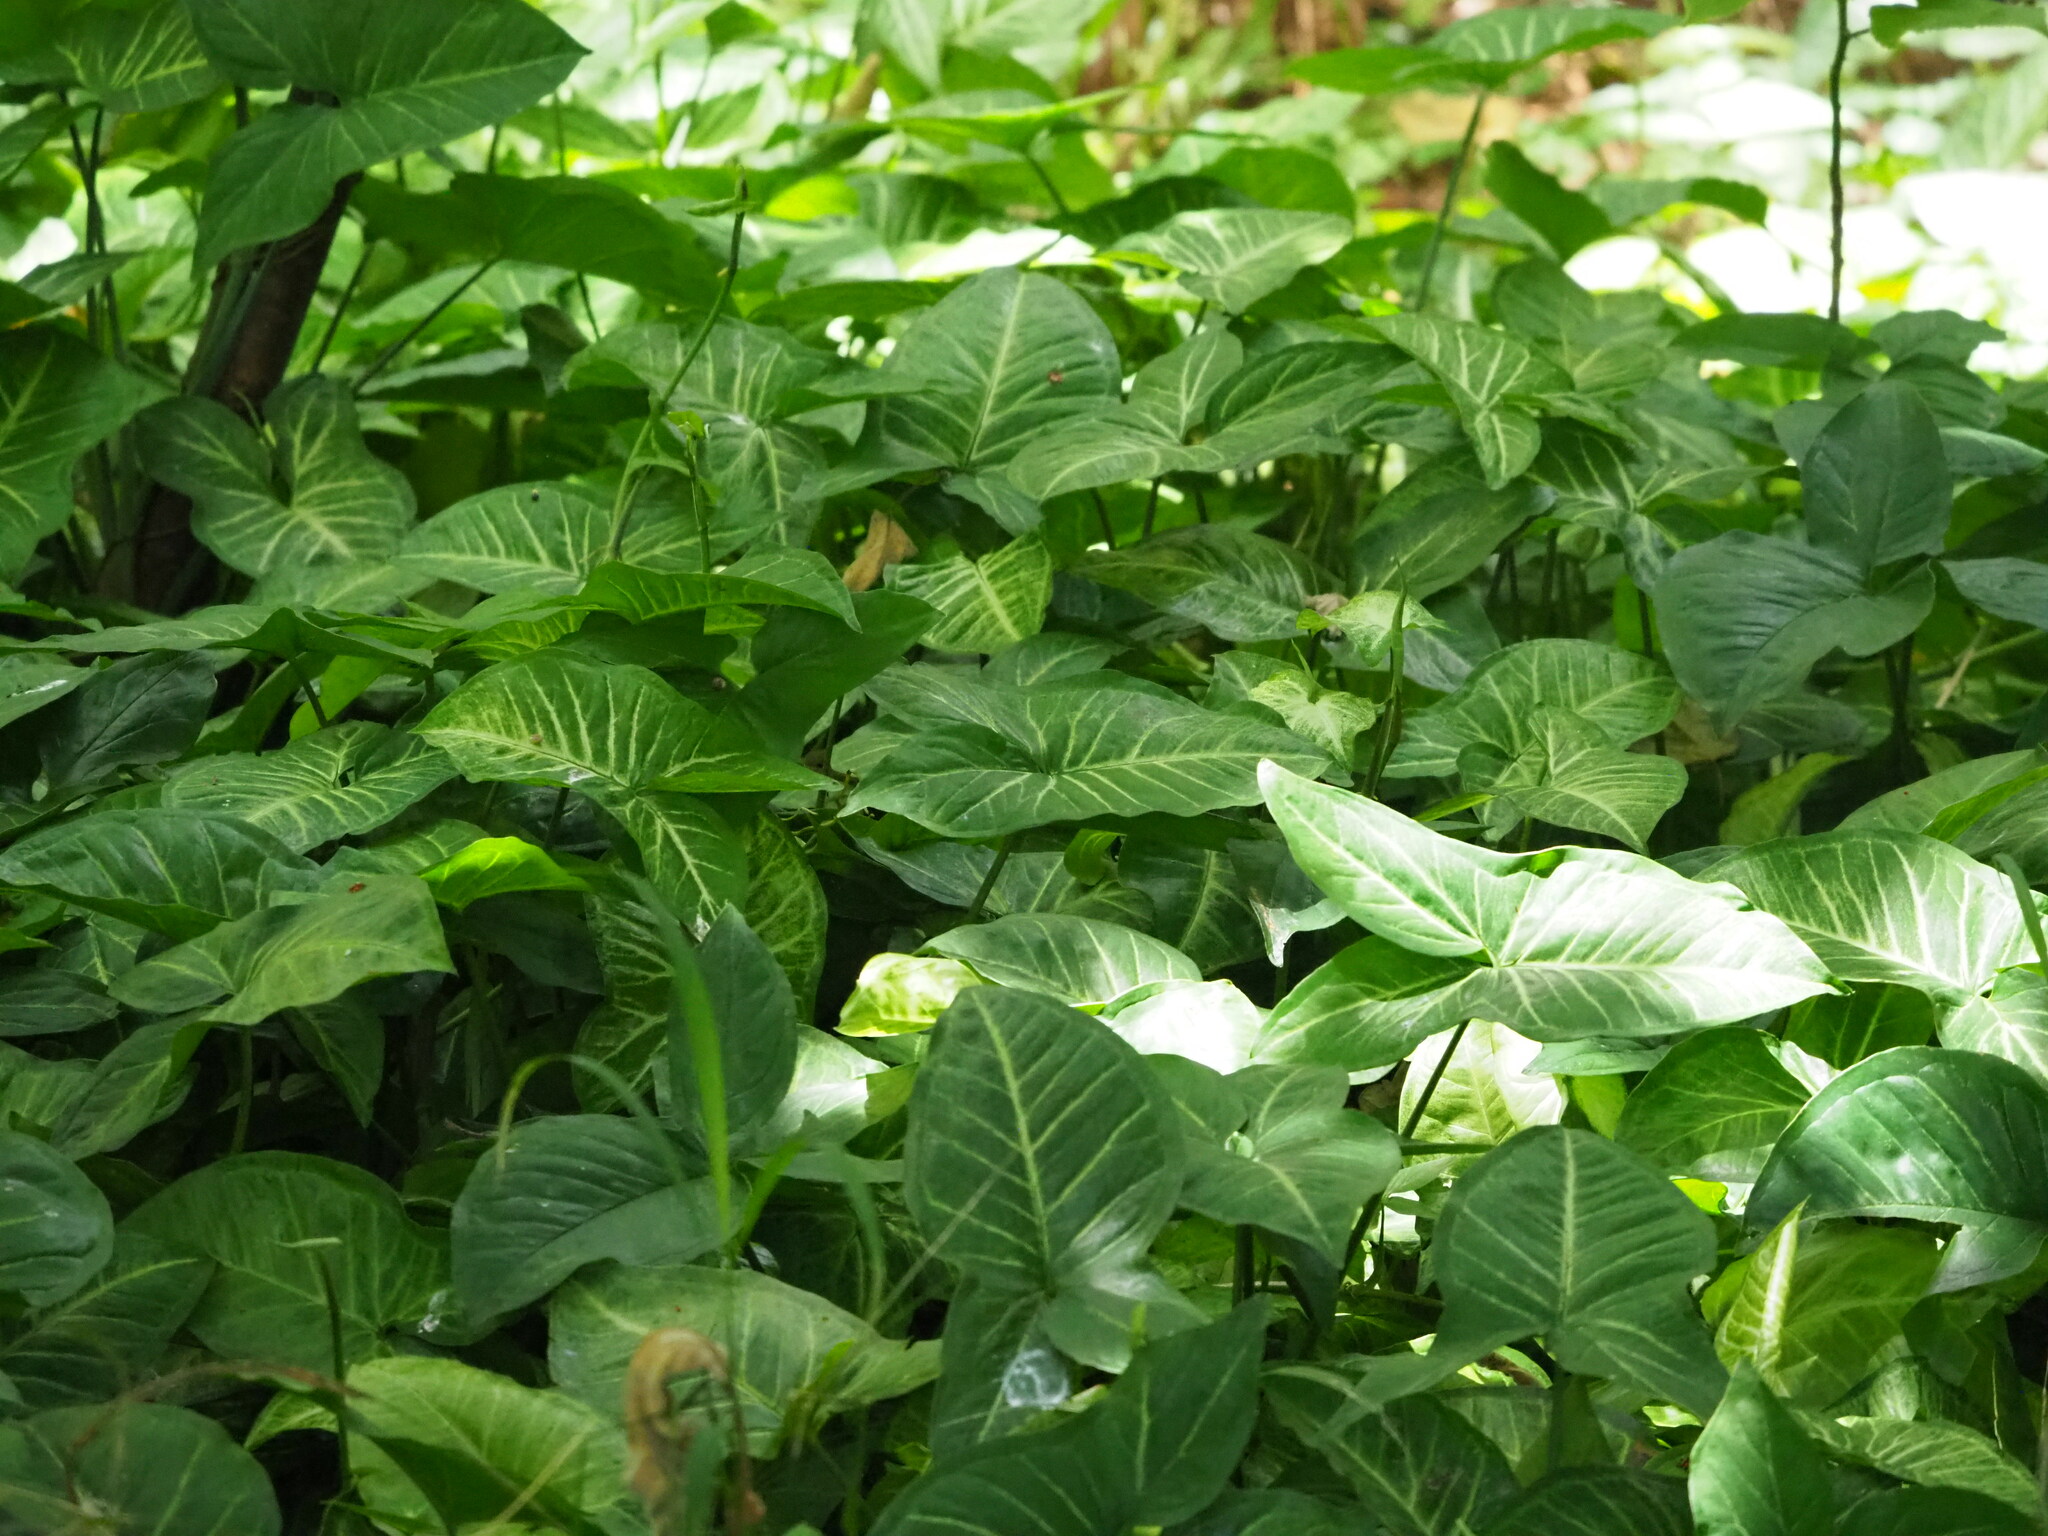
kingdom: Plantae
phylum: Tracheophyta
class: Liliopsida
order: Alismatales
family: Araceae
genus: Syngonium
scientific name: Syngonium podophyllum
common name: American evergreen
